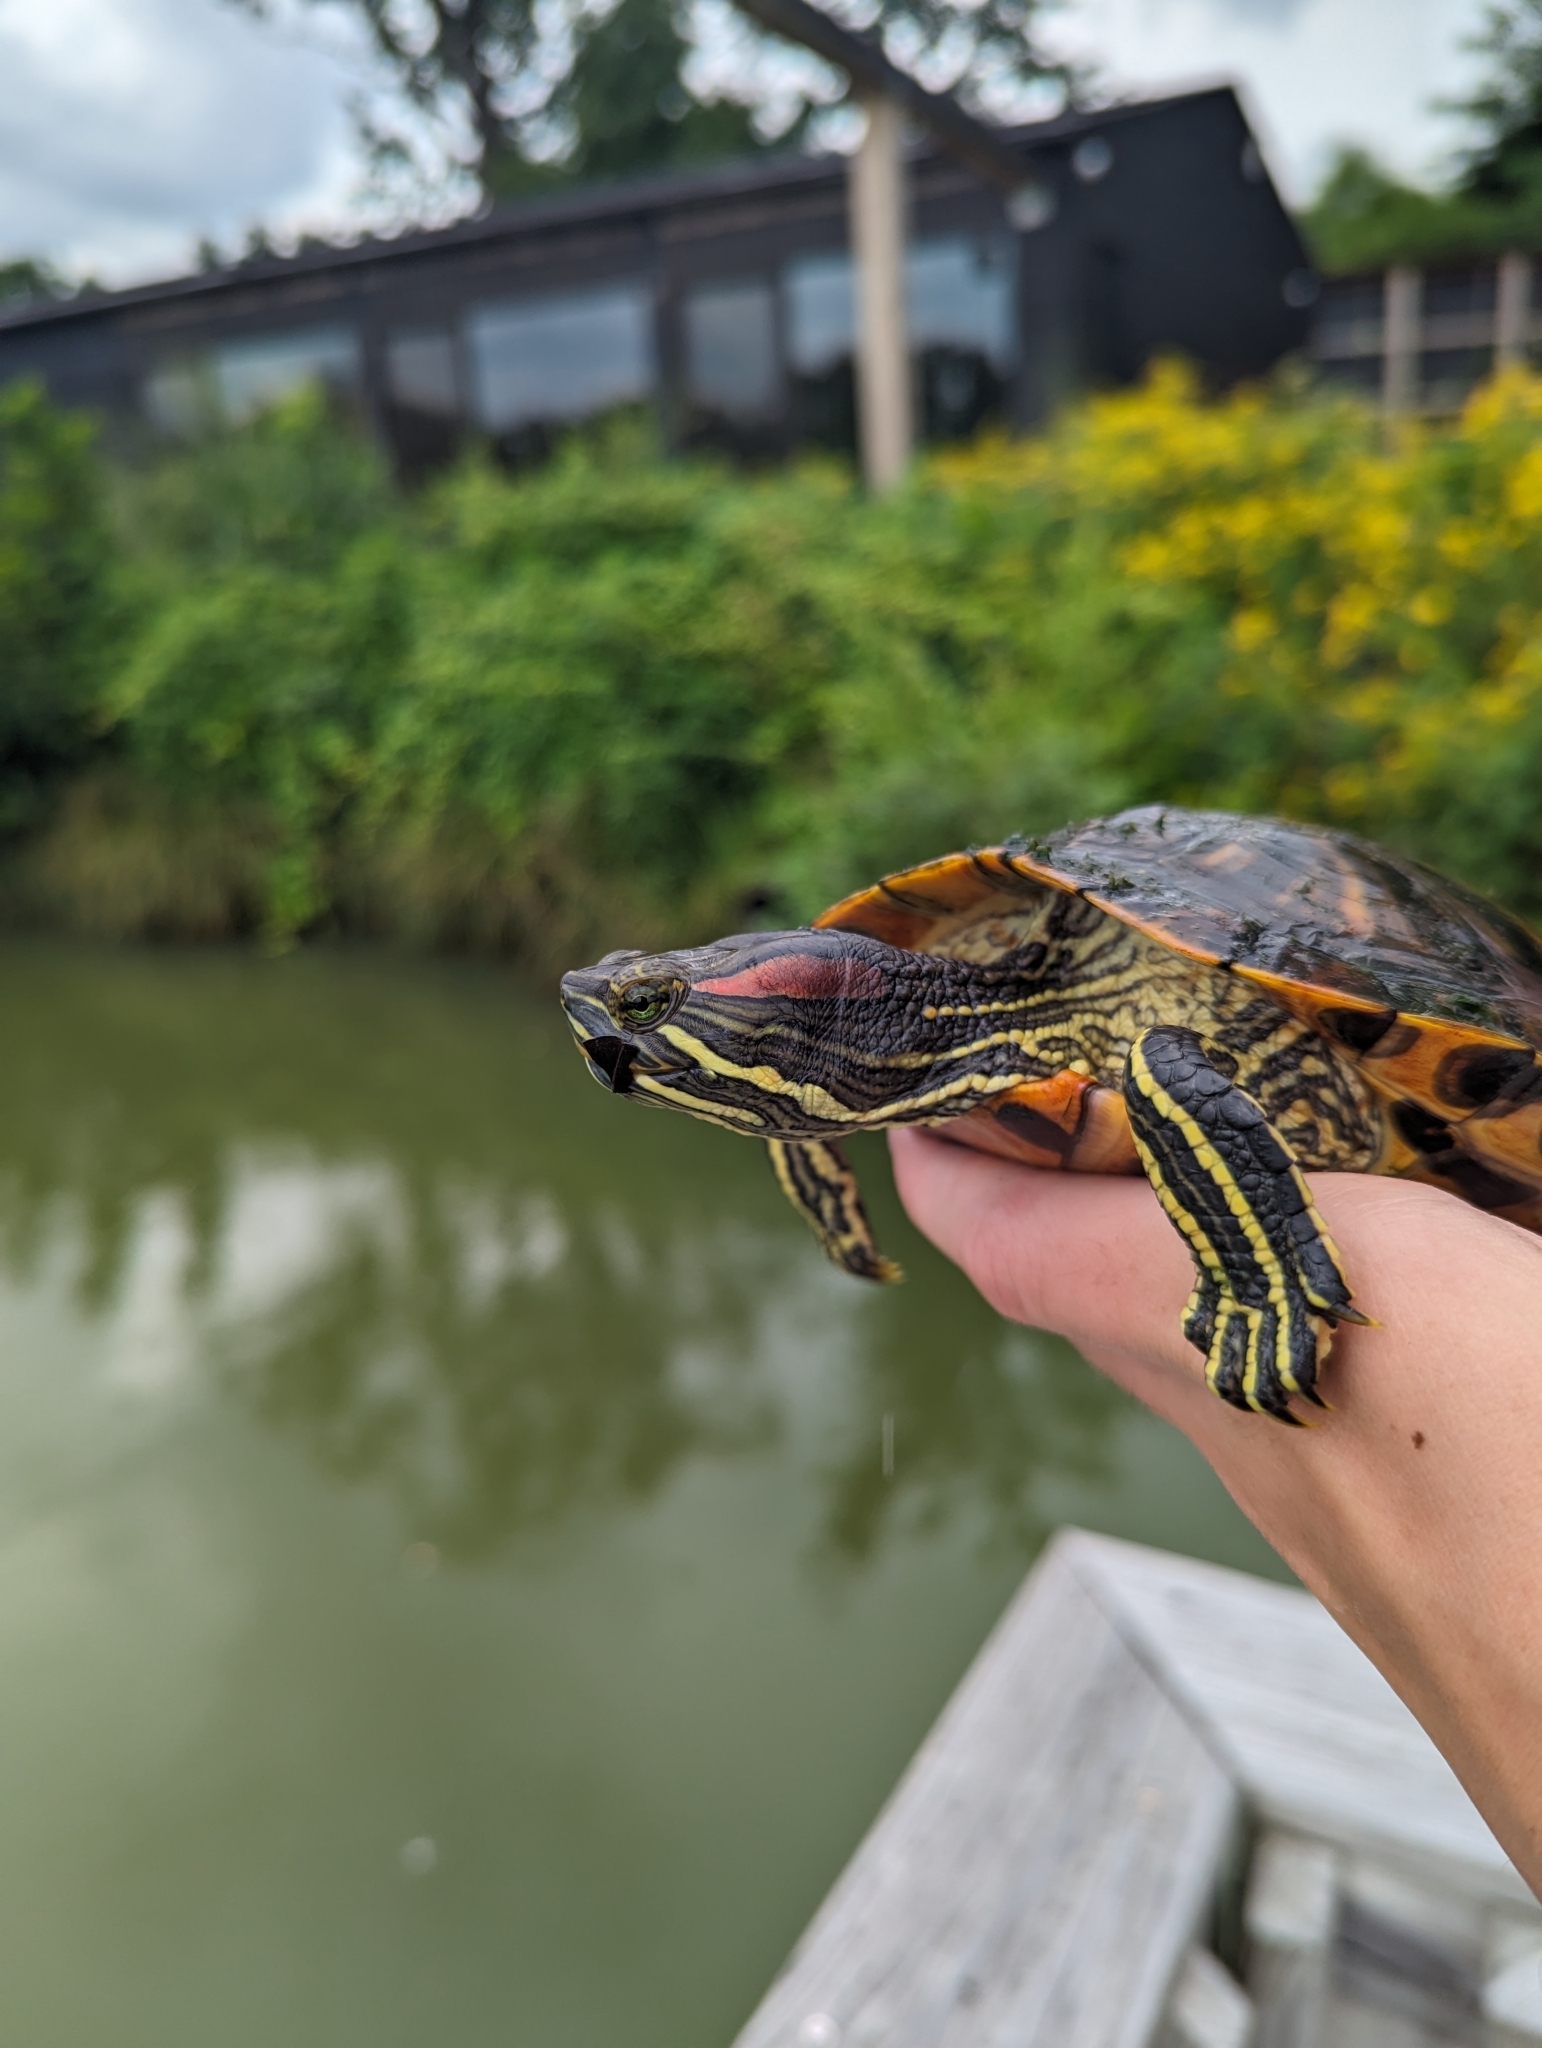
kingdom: Animalia
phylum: Chordata
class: Testudines
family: Emydidae
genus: Trachemys
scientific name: Trachemys scripta
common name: Slider
